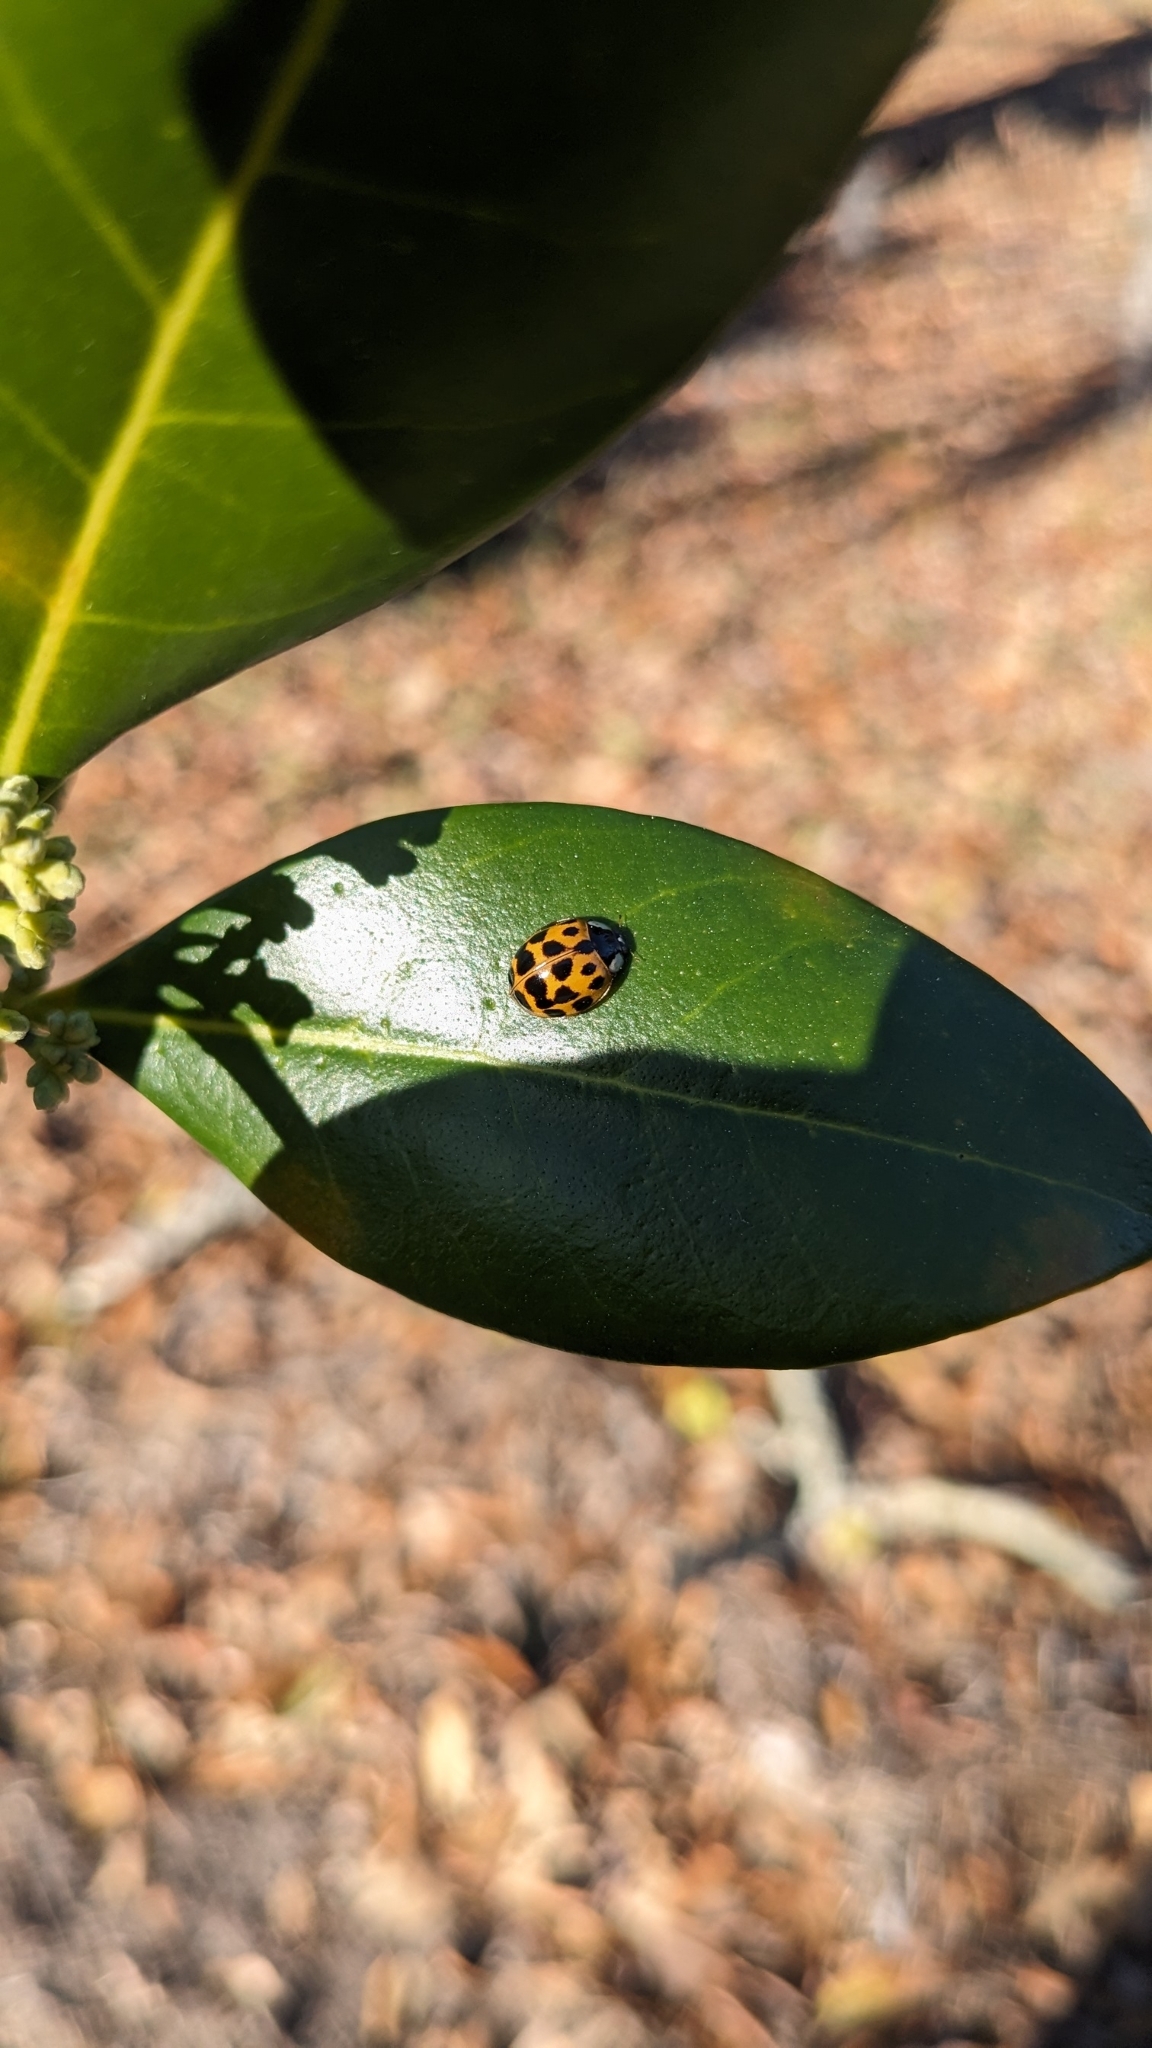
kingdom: Animalia
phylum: Arthropoda
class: Insecta
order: Coleoptera
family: Coccinellidae
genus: Harmonia
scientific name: Harmonia axyridis
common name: Harlequin ladybird
